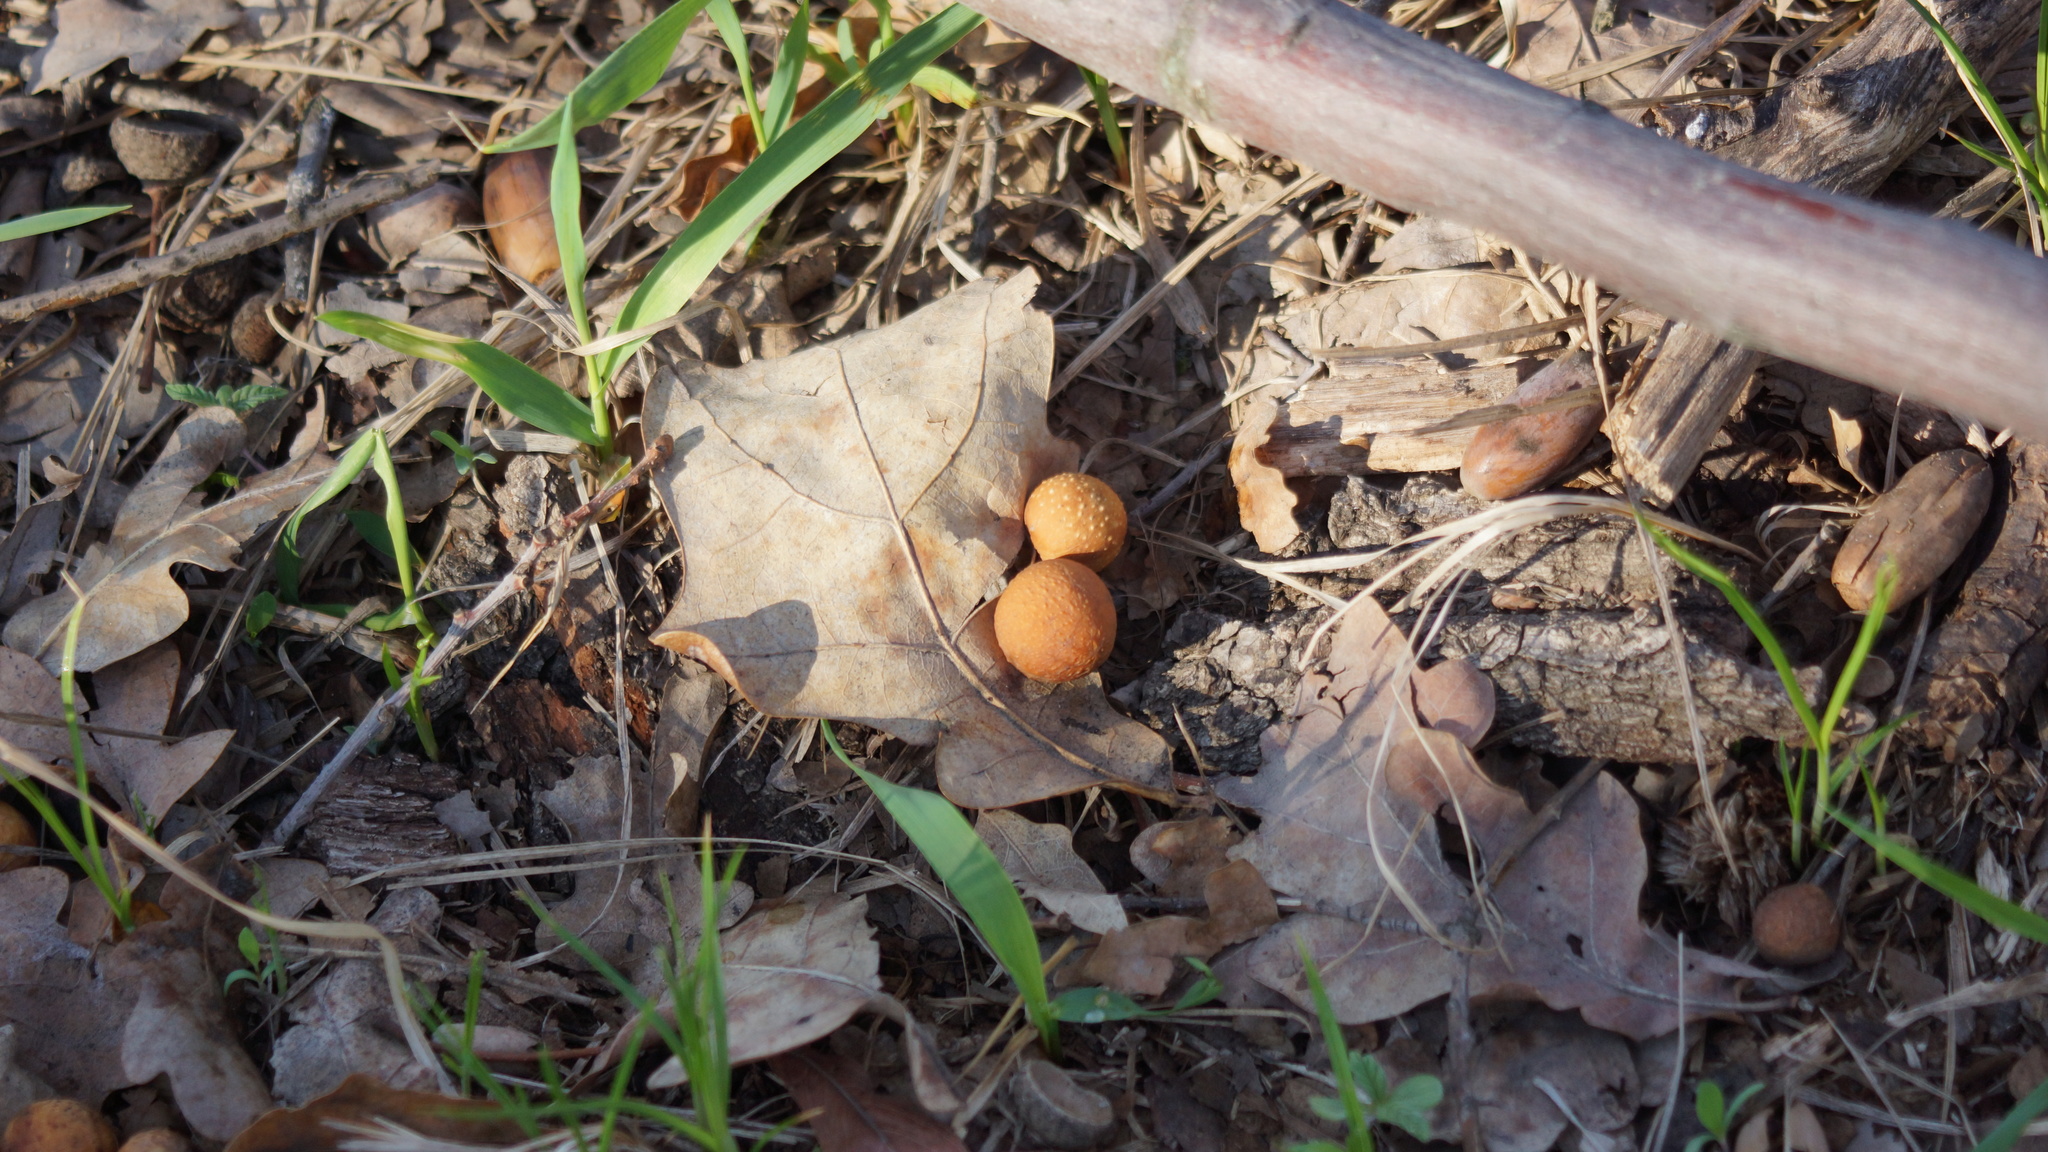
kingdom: Animalia
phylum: Arthropoda
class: Insecta
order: Hymenoptera
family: Cynipidae
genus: Cynips
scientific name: Cynips quercusfolii
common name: Cherry gall
